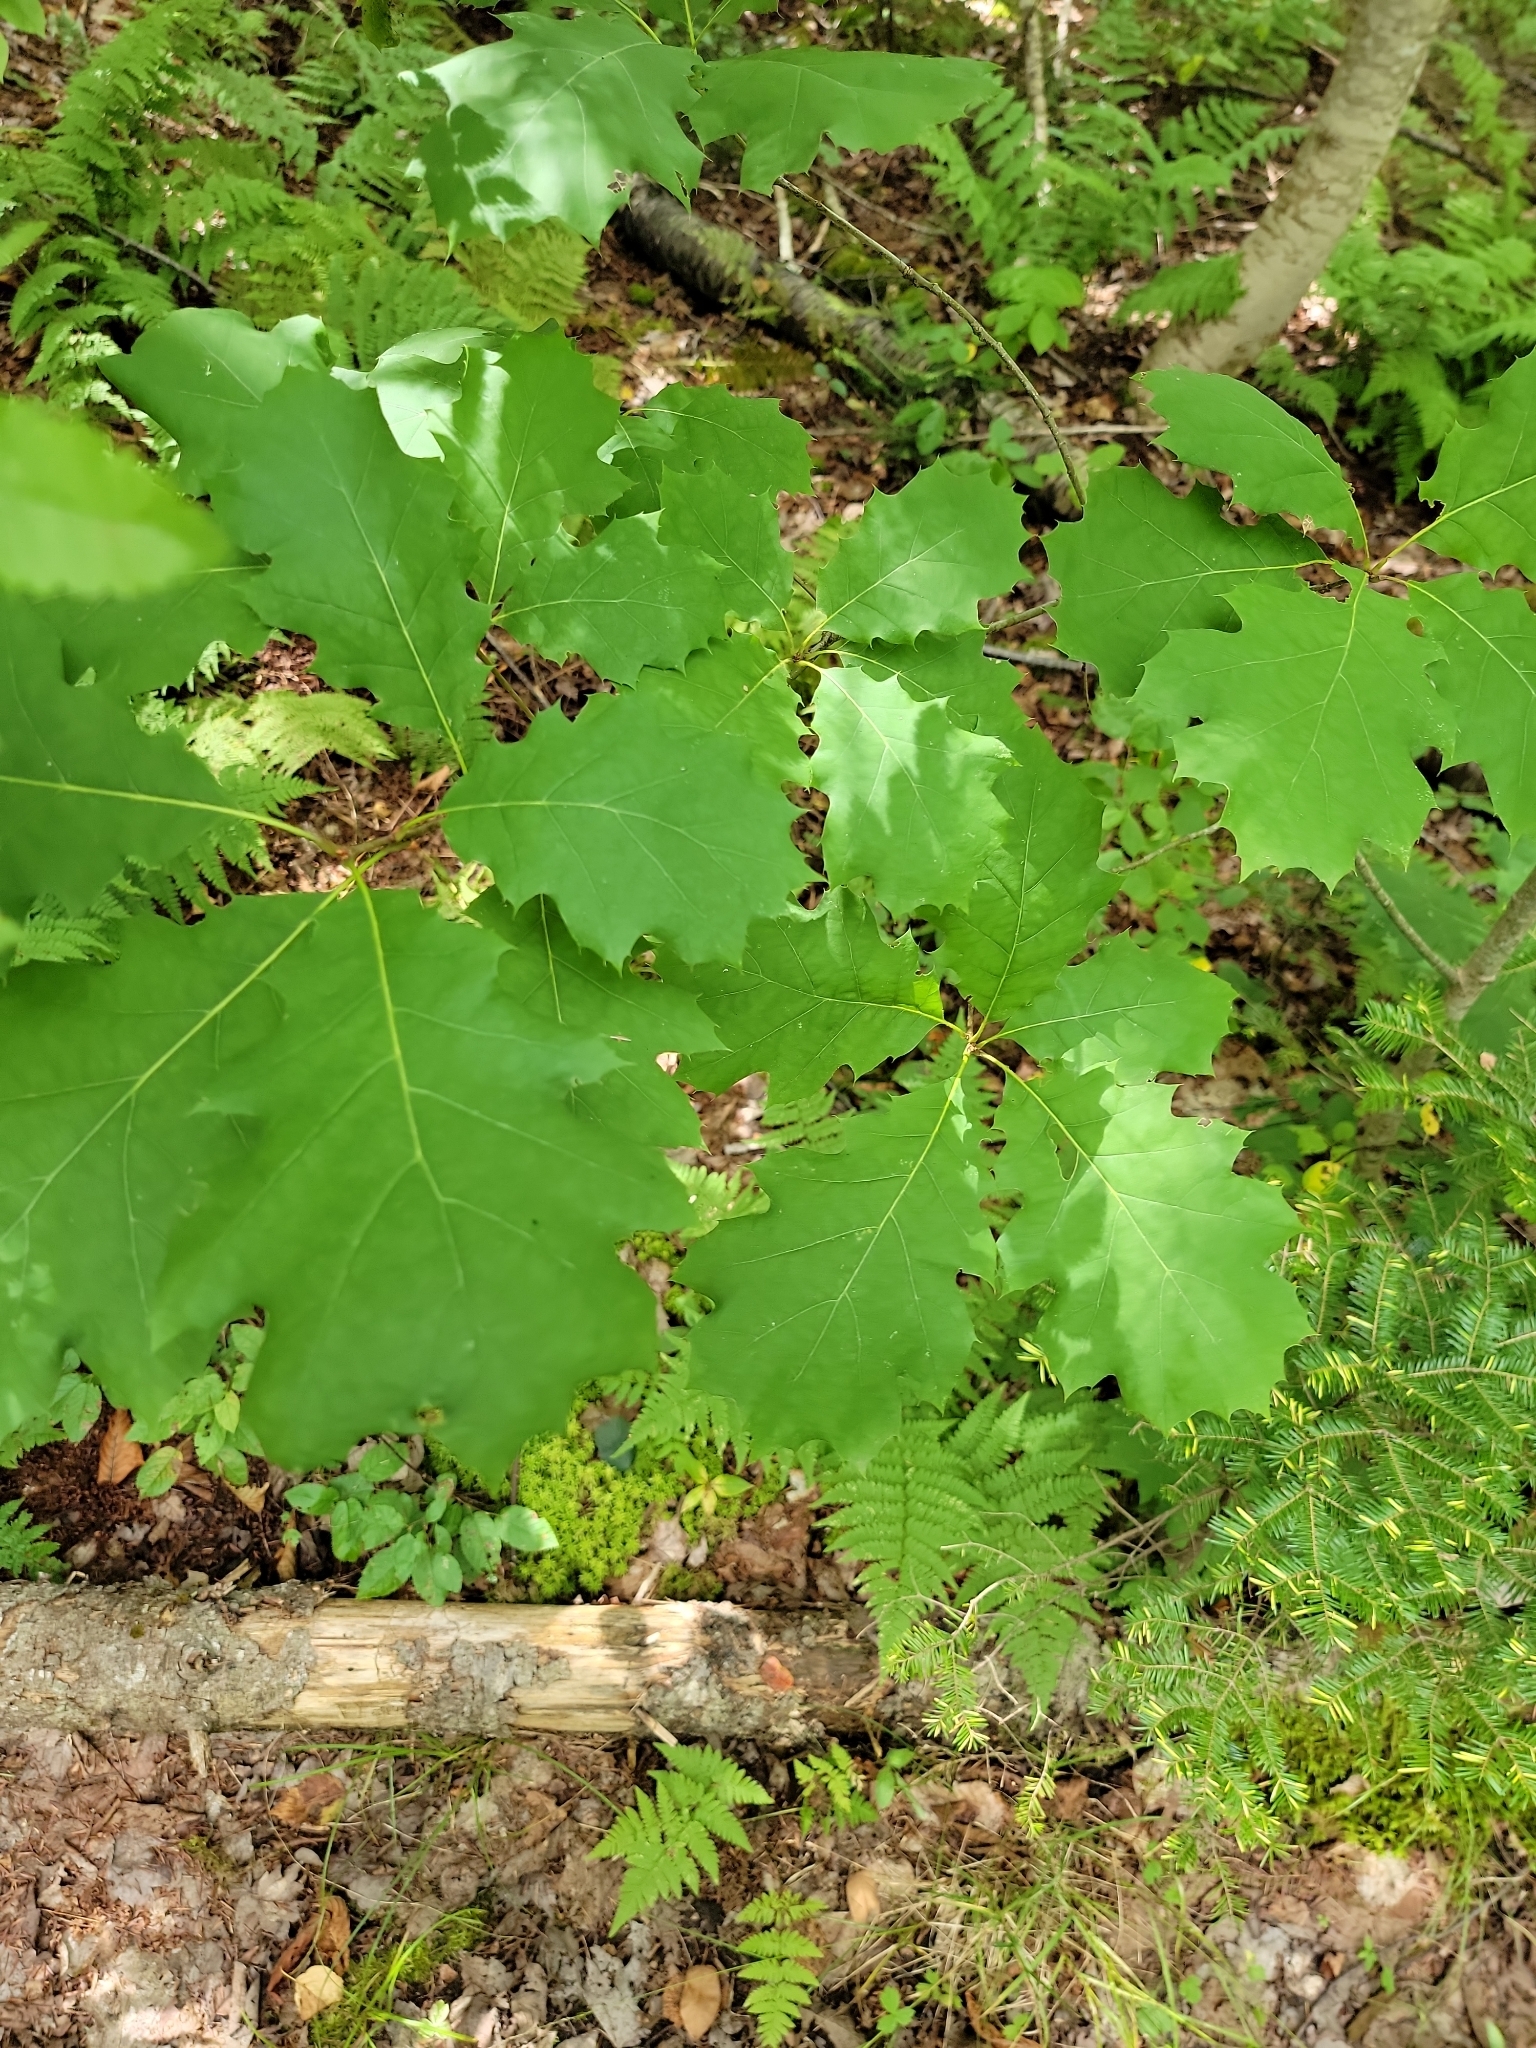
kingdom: Plantae
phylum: Tracheophyta
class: Magnoliopsida
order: Fagales
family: Fagaceae
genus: Quercus
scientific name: Quercus rubra
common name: Red oak
